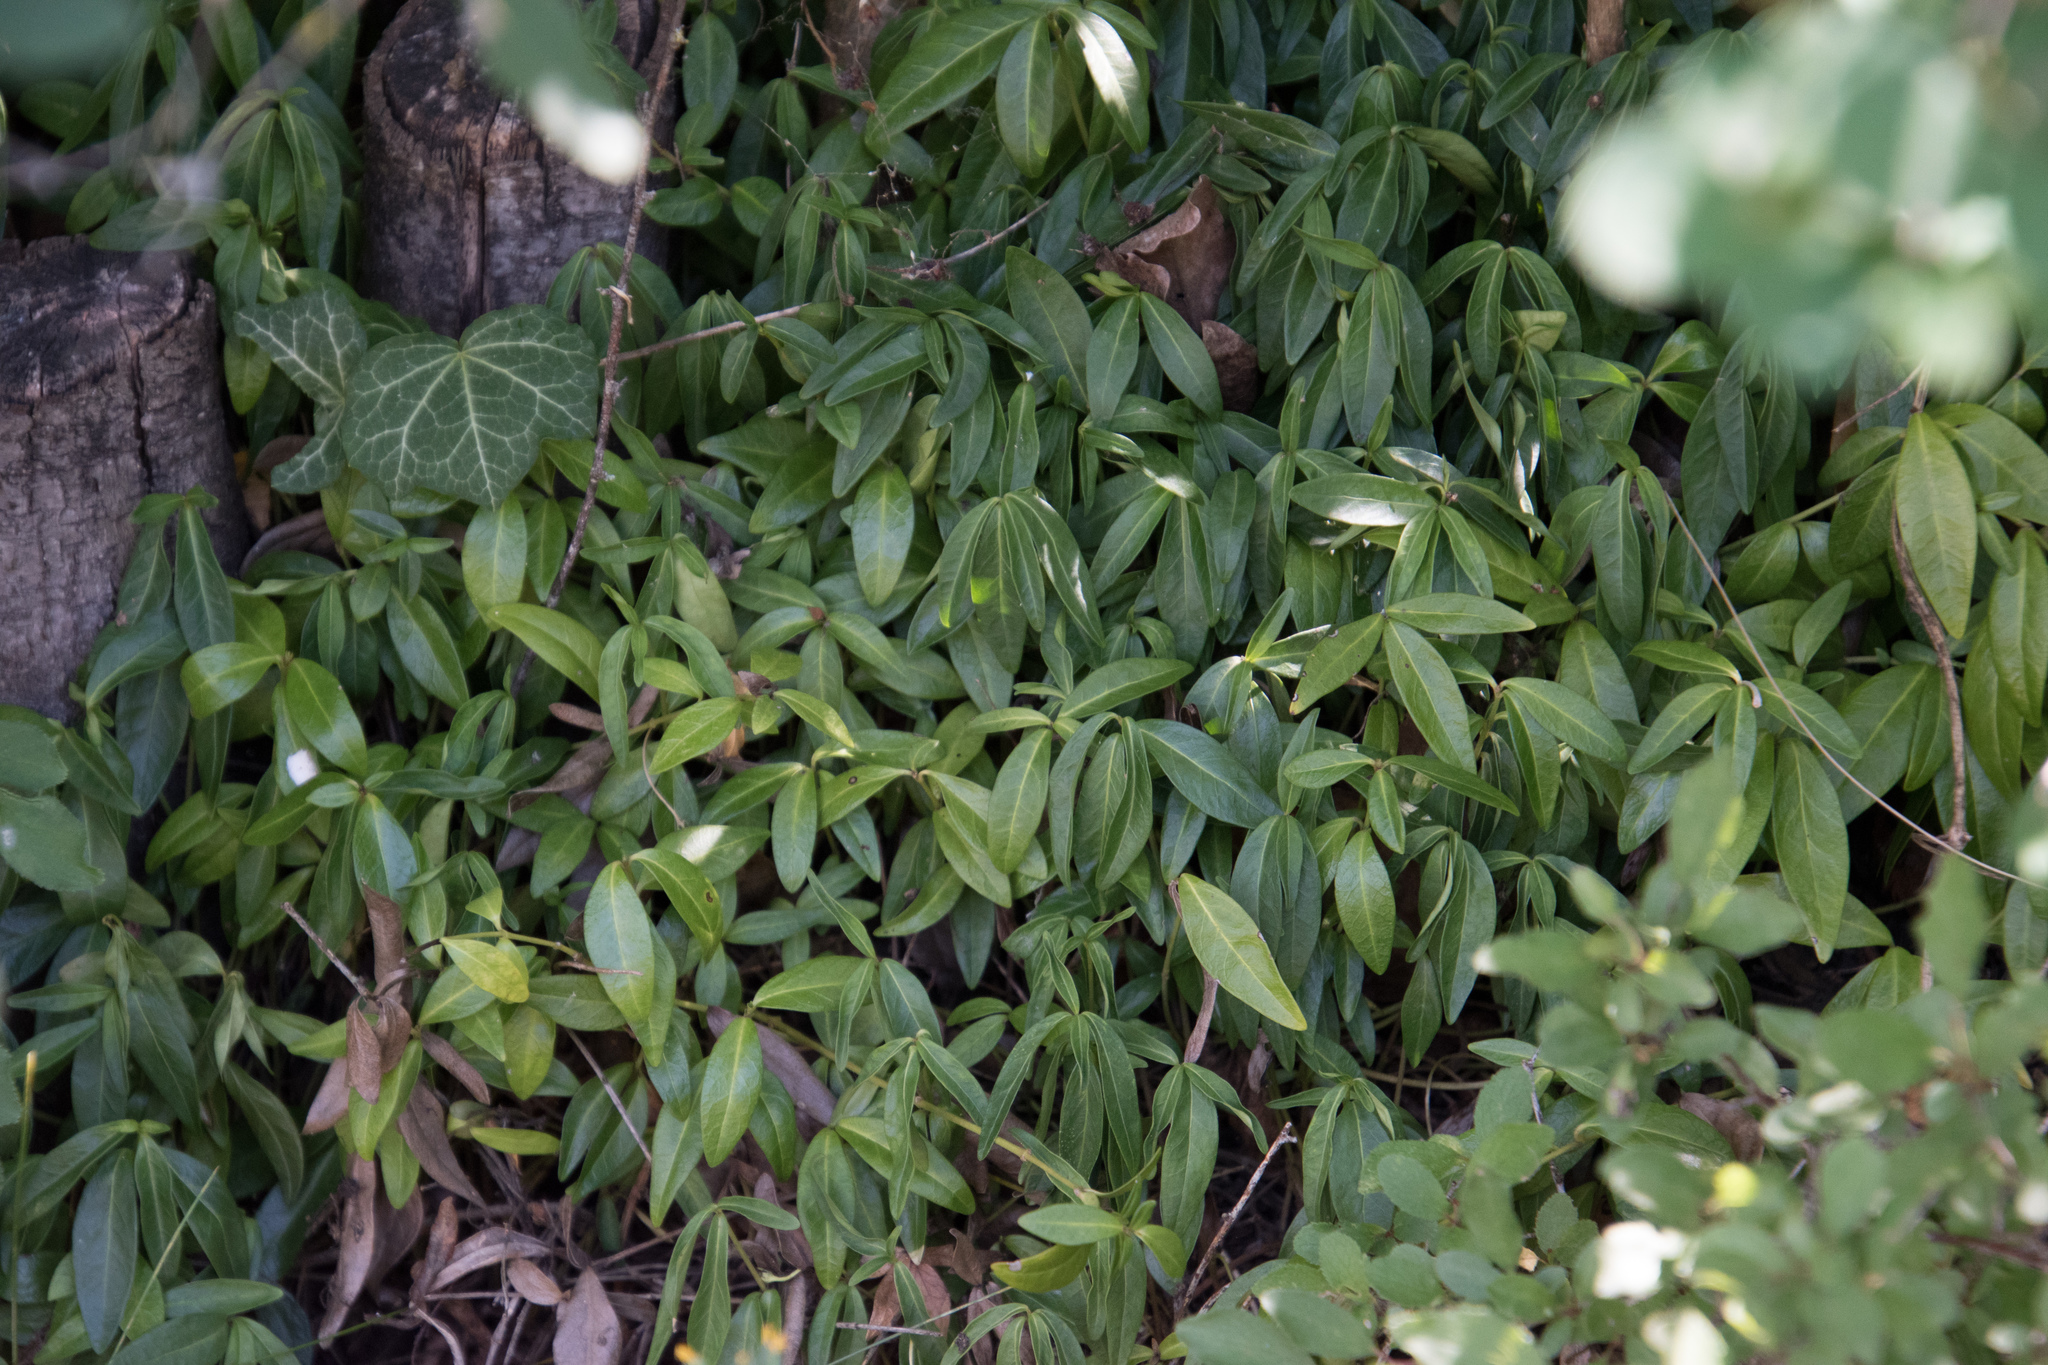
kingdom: Plantae
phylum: Tracheophyta
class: Magnoliopsida
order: Gentianales
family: Apocynaceae
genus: Vinca
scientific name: Vinca minor
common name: Lesser periwinkle
